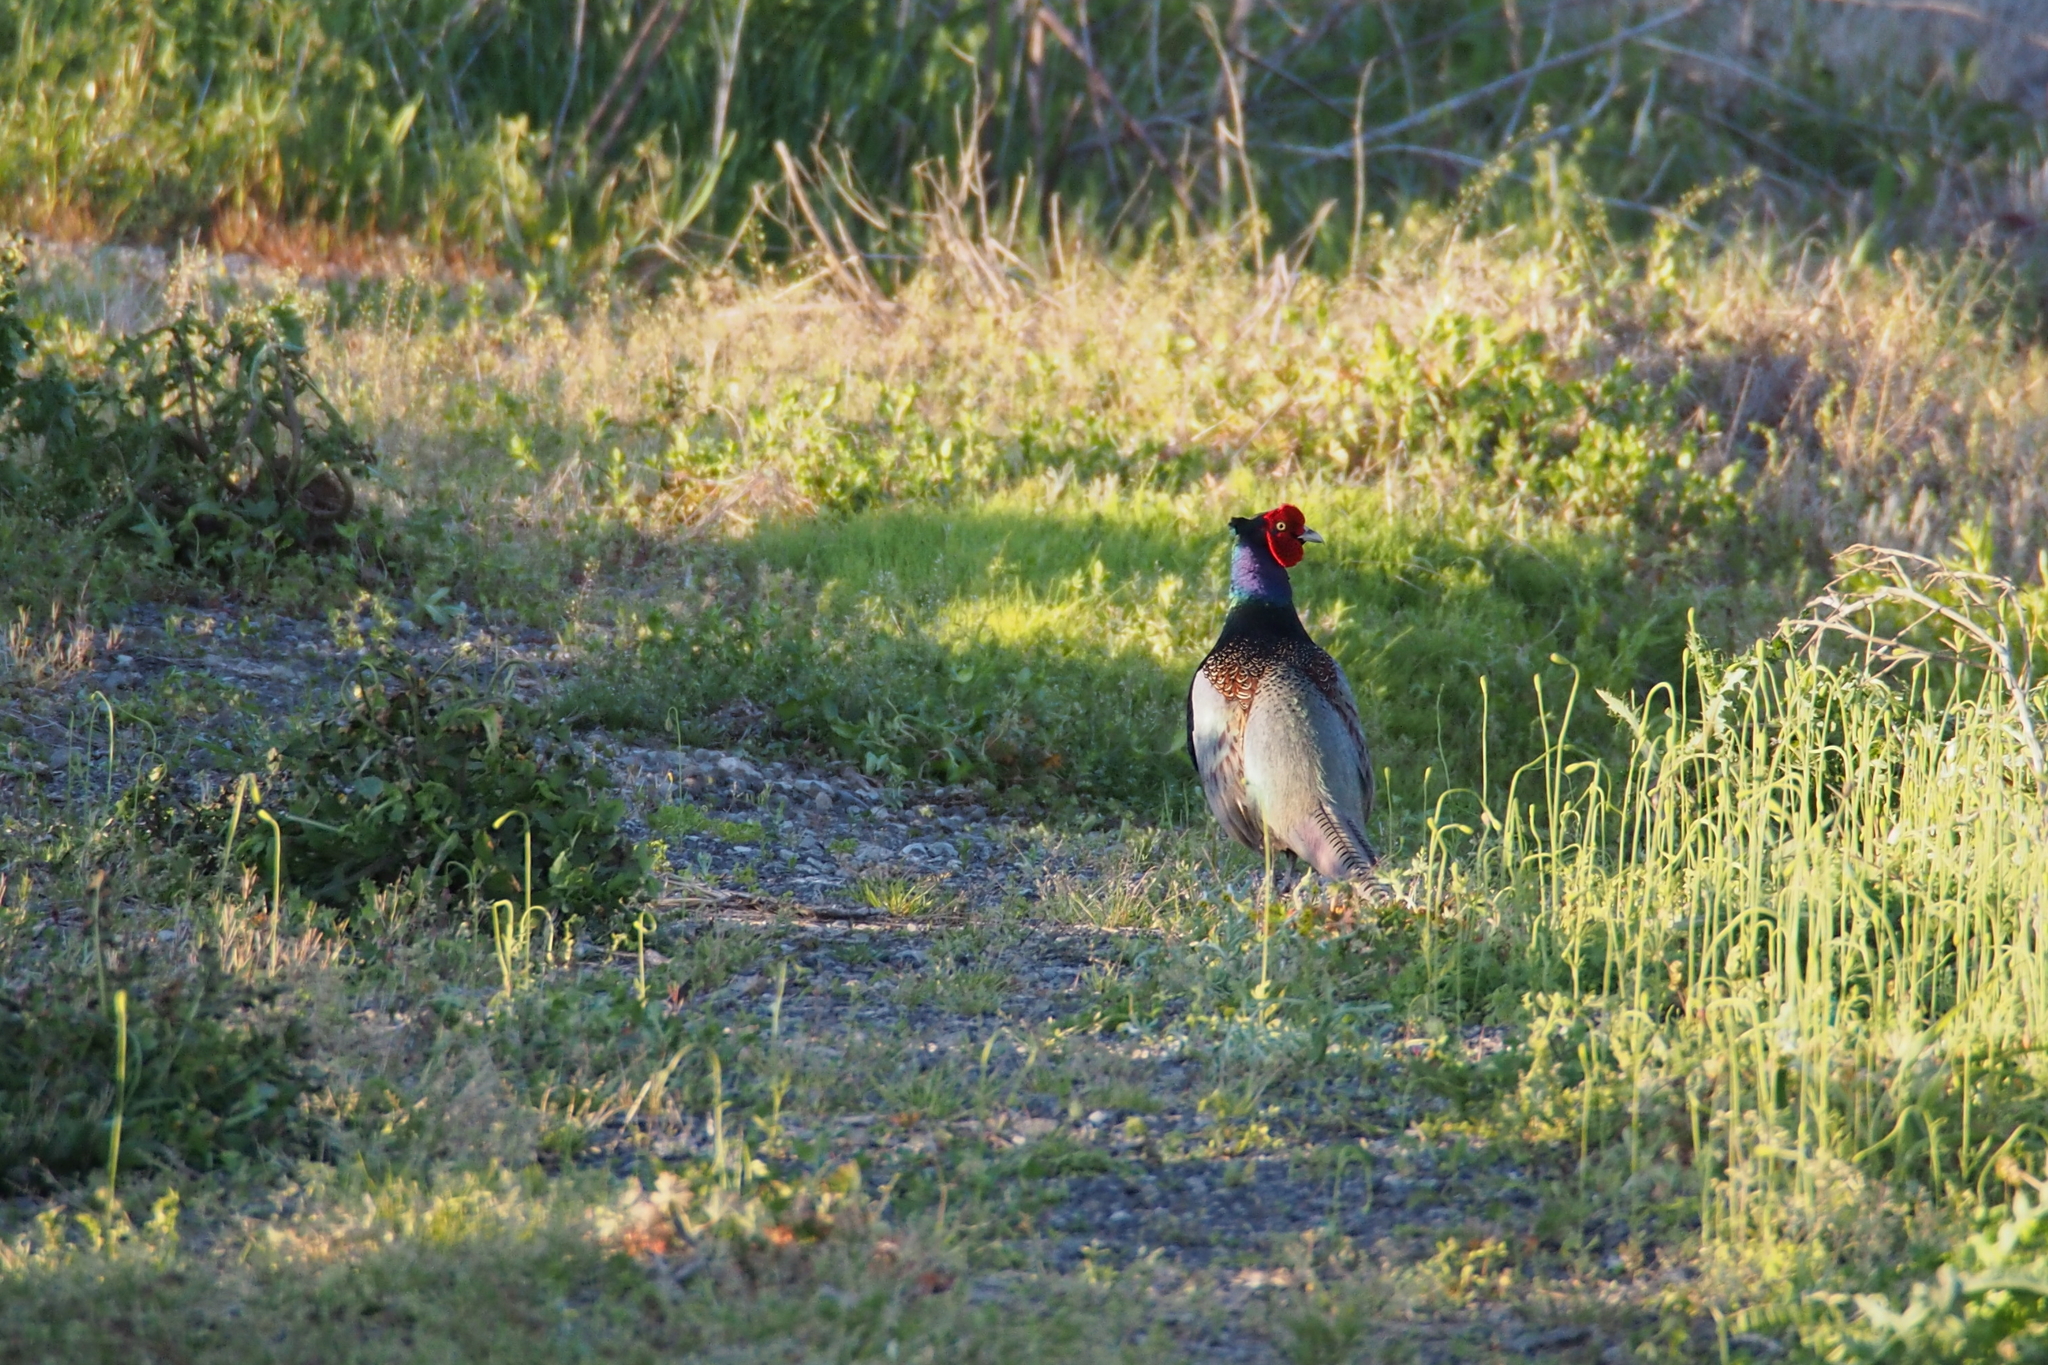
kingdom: Animalia
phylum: Chordata
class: Aves
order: Galliformes
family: Phasianidae
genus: Phasianus
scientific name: Phasianus versicolor
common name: Green pheasant
